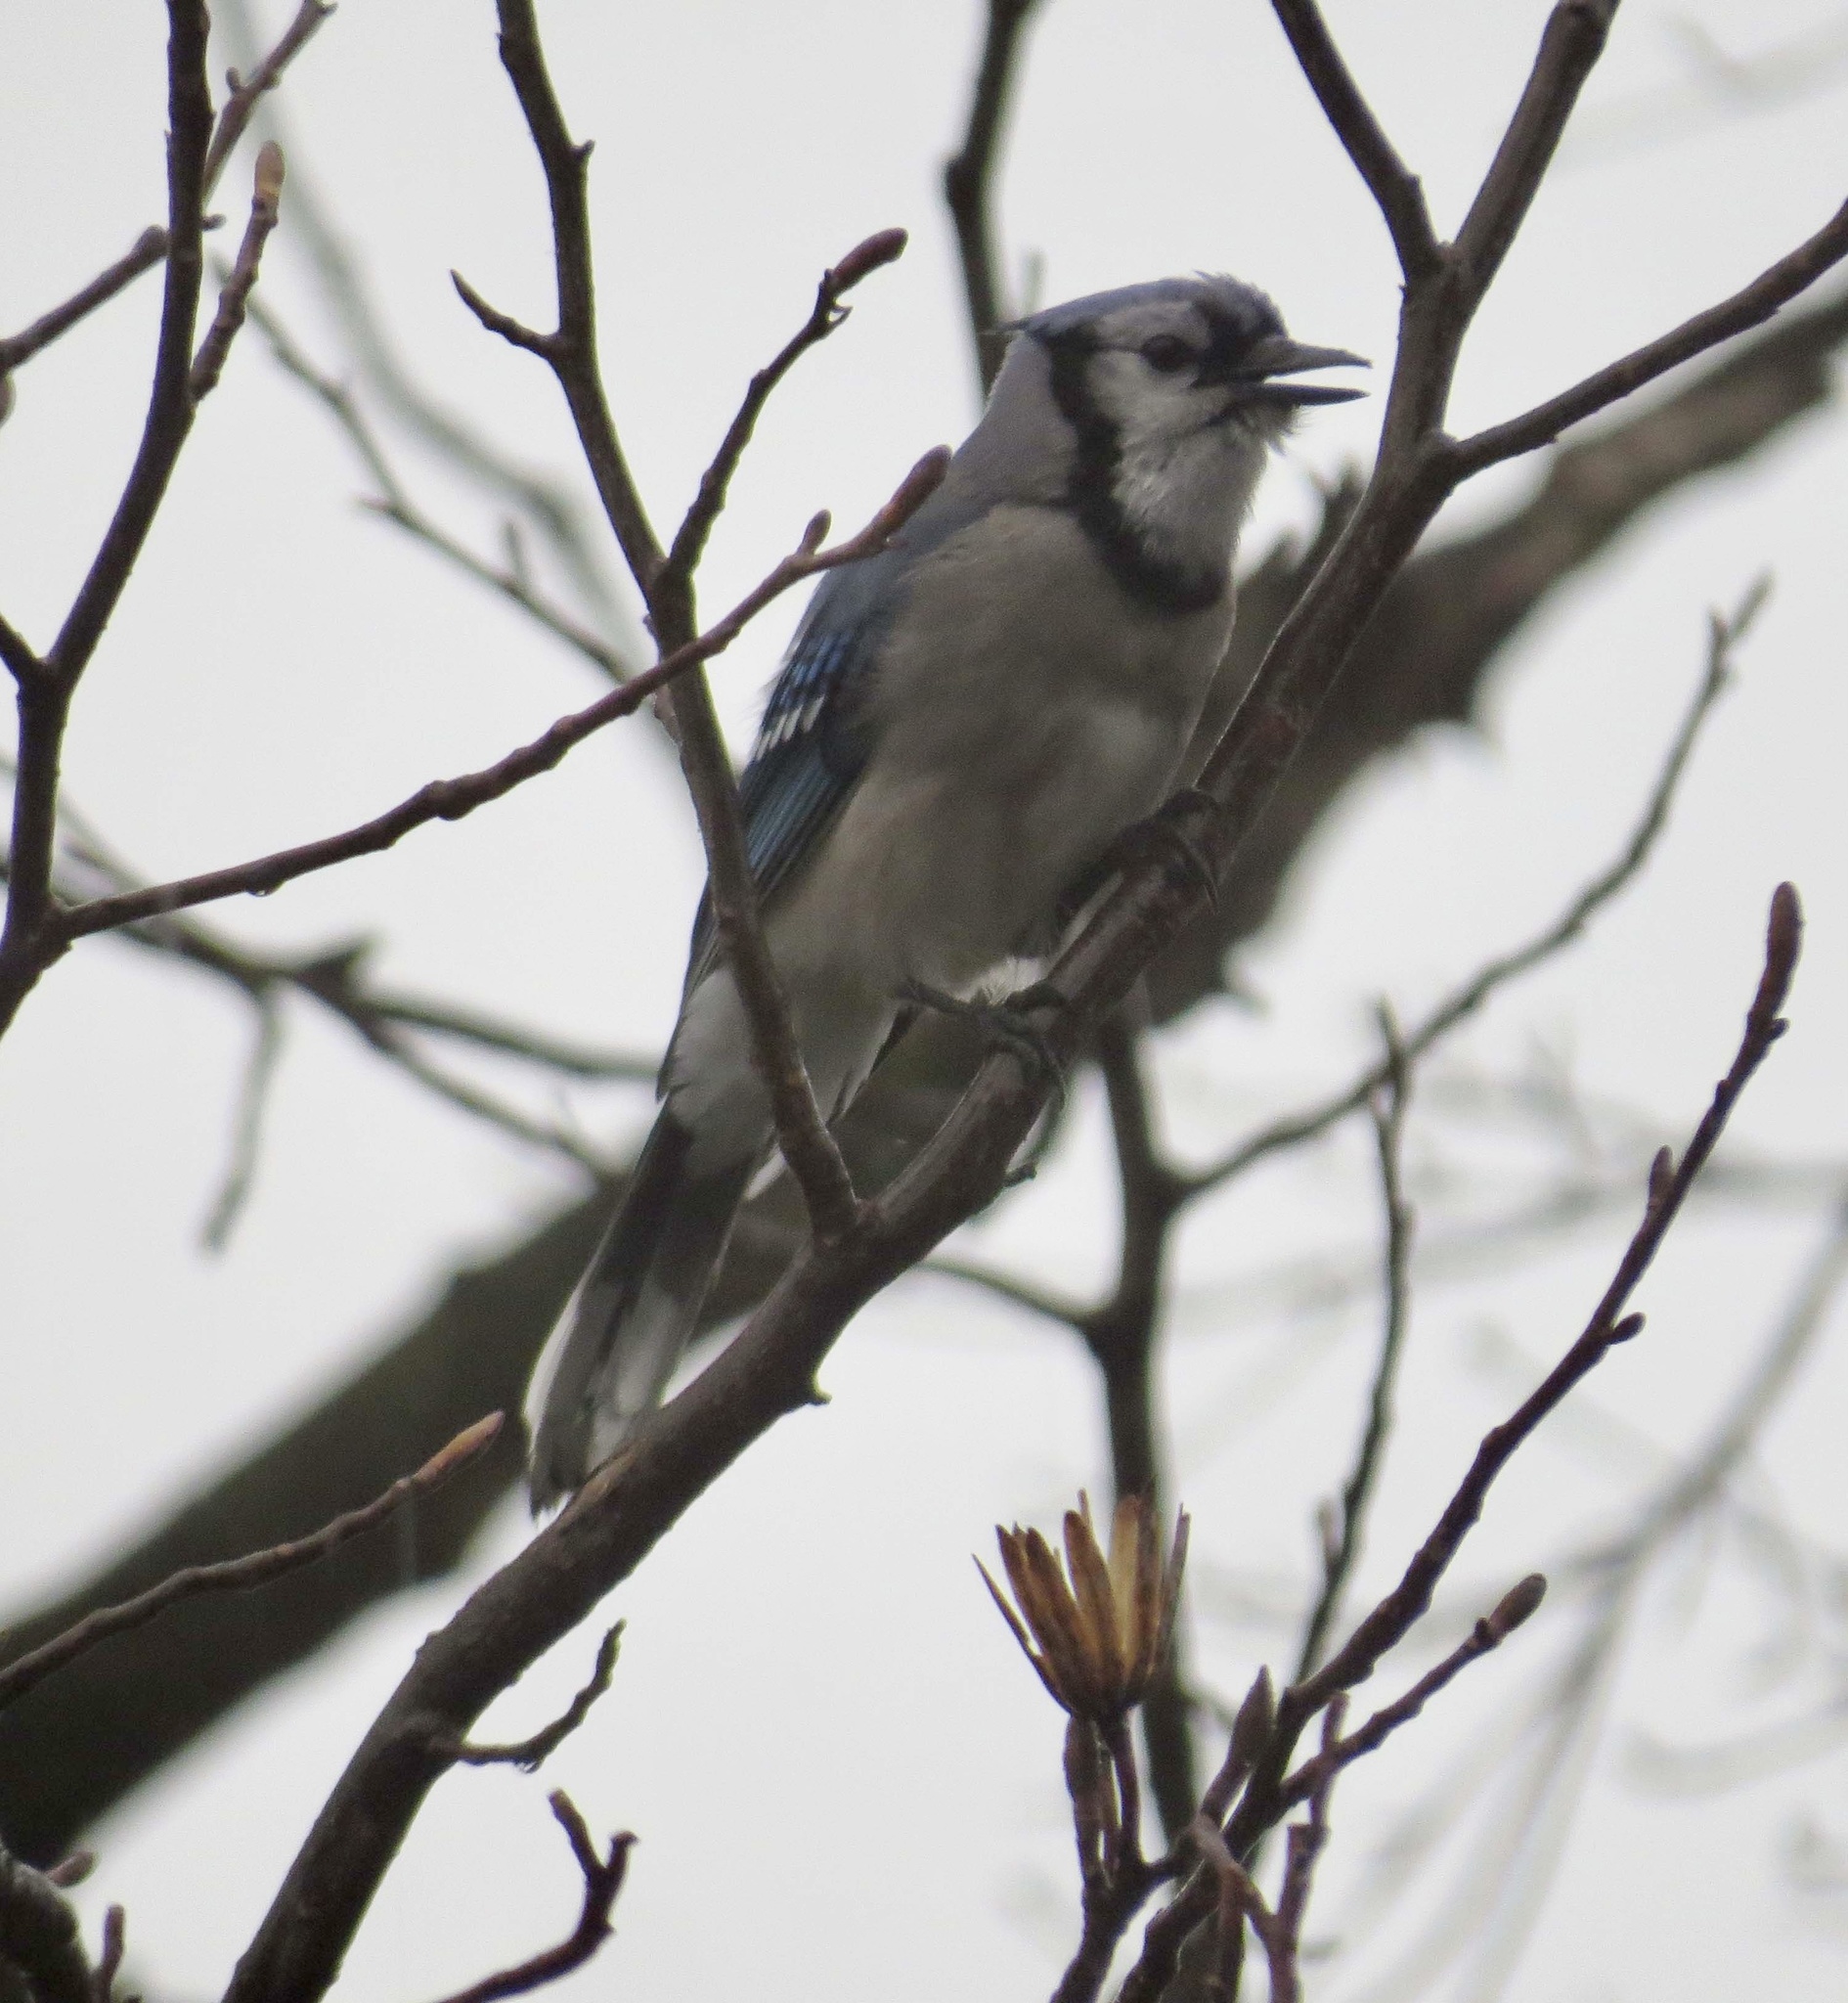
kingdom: Animalia
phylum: Chordata
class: Aves
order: Passeriformes
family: Corvidae
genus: Cyanocitta
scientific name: Cyanocitta cristata
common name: Blue jay
